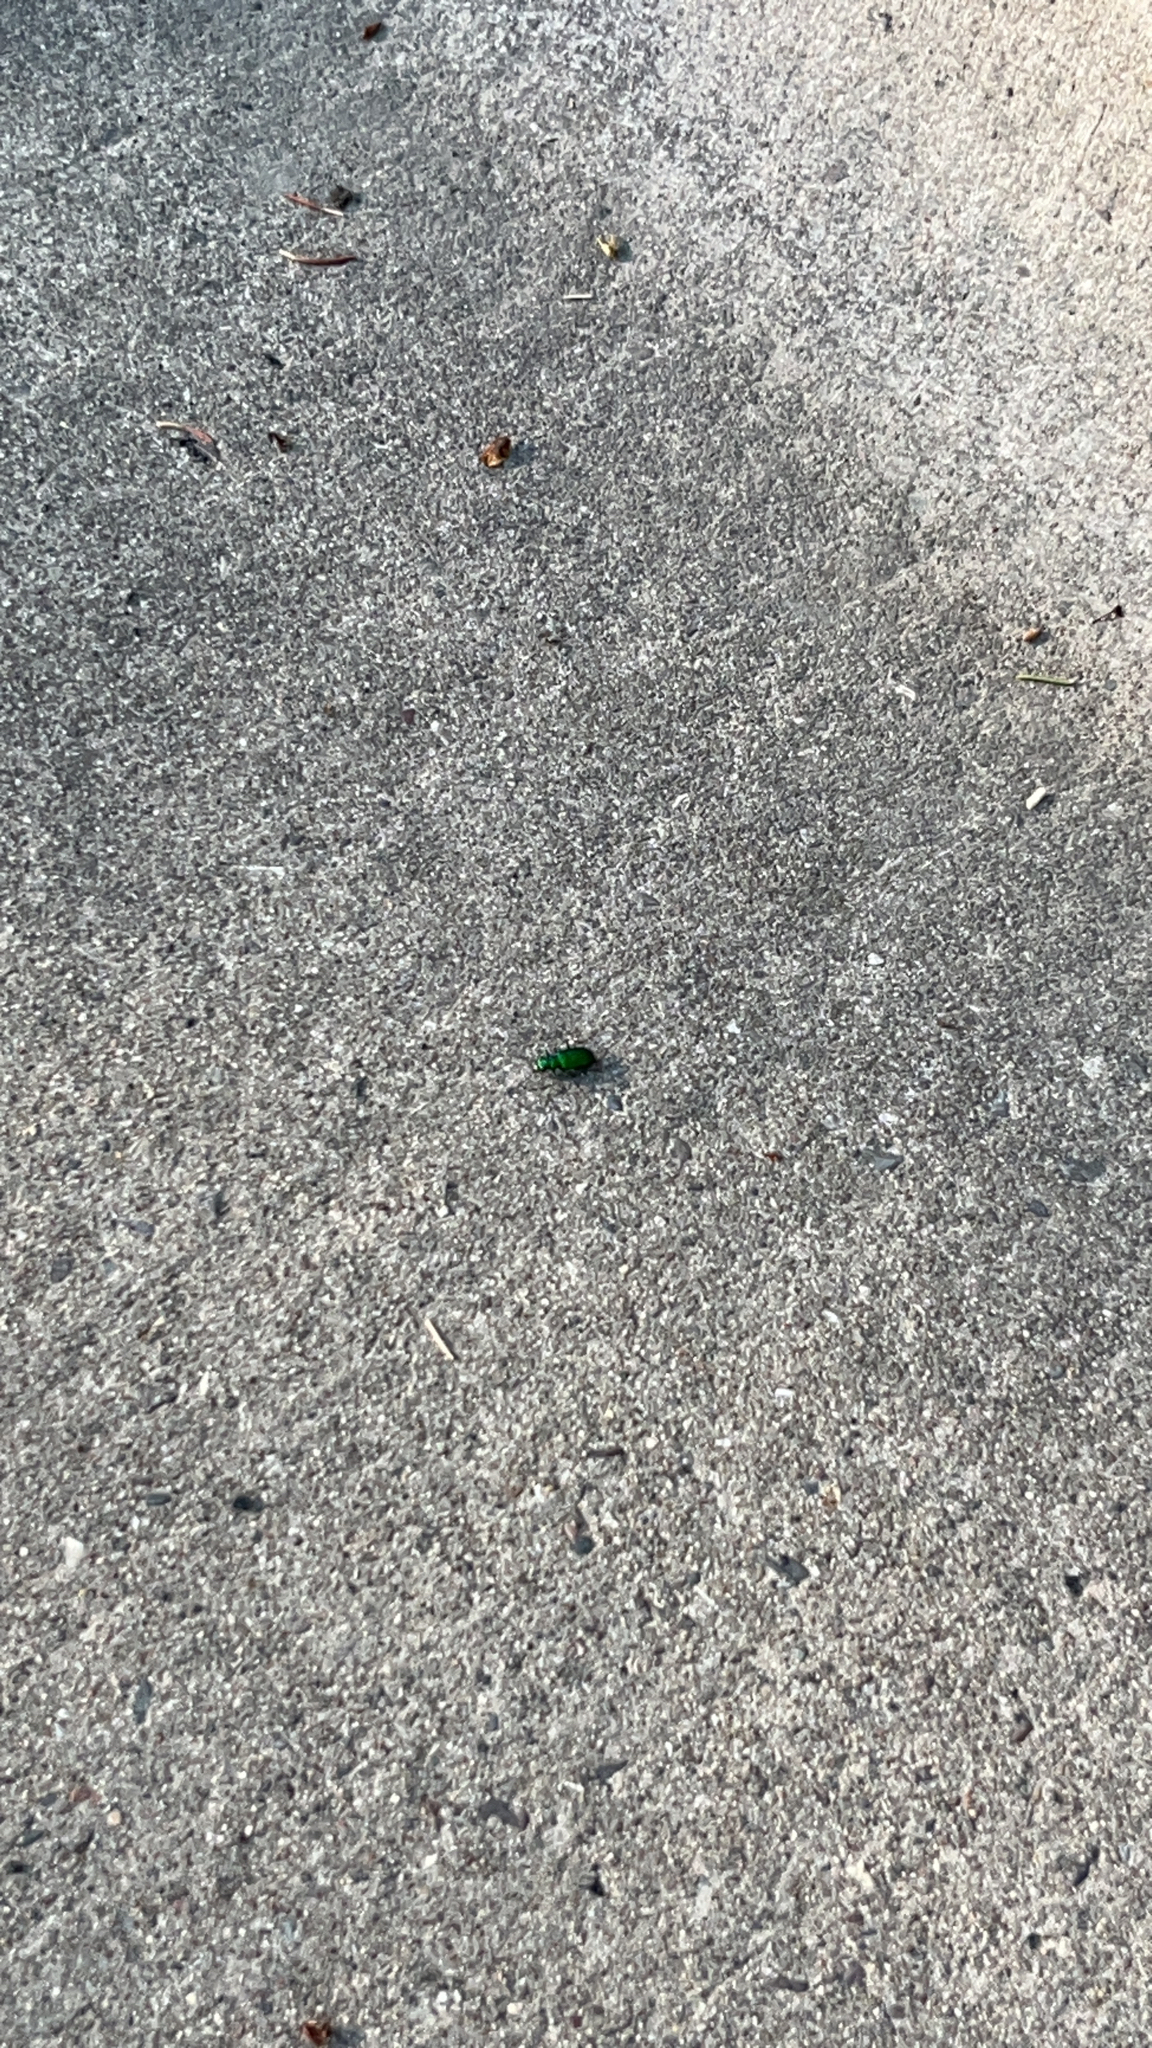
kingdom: Animalia
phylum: Arthropoda
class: Insecta
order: Coleoptera
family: Carabidae
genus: Cicindela
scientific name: Cicindela sexguttata
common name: Six-spotted tiger beetle
